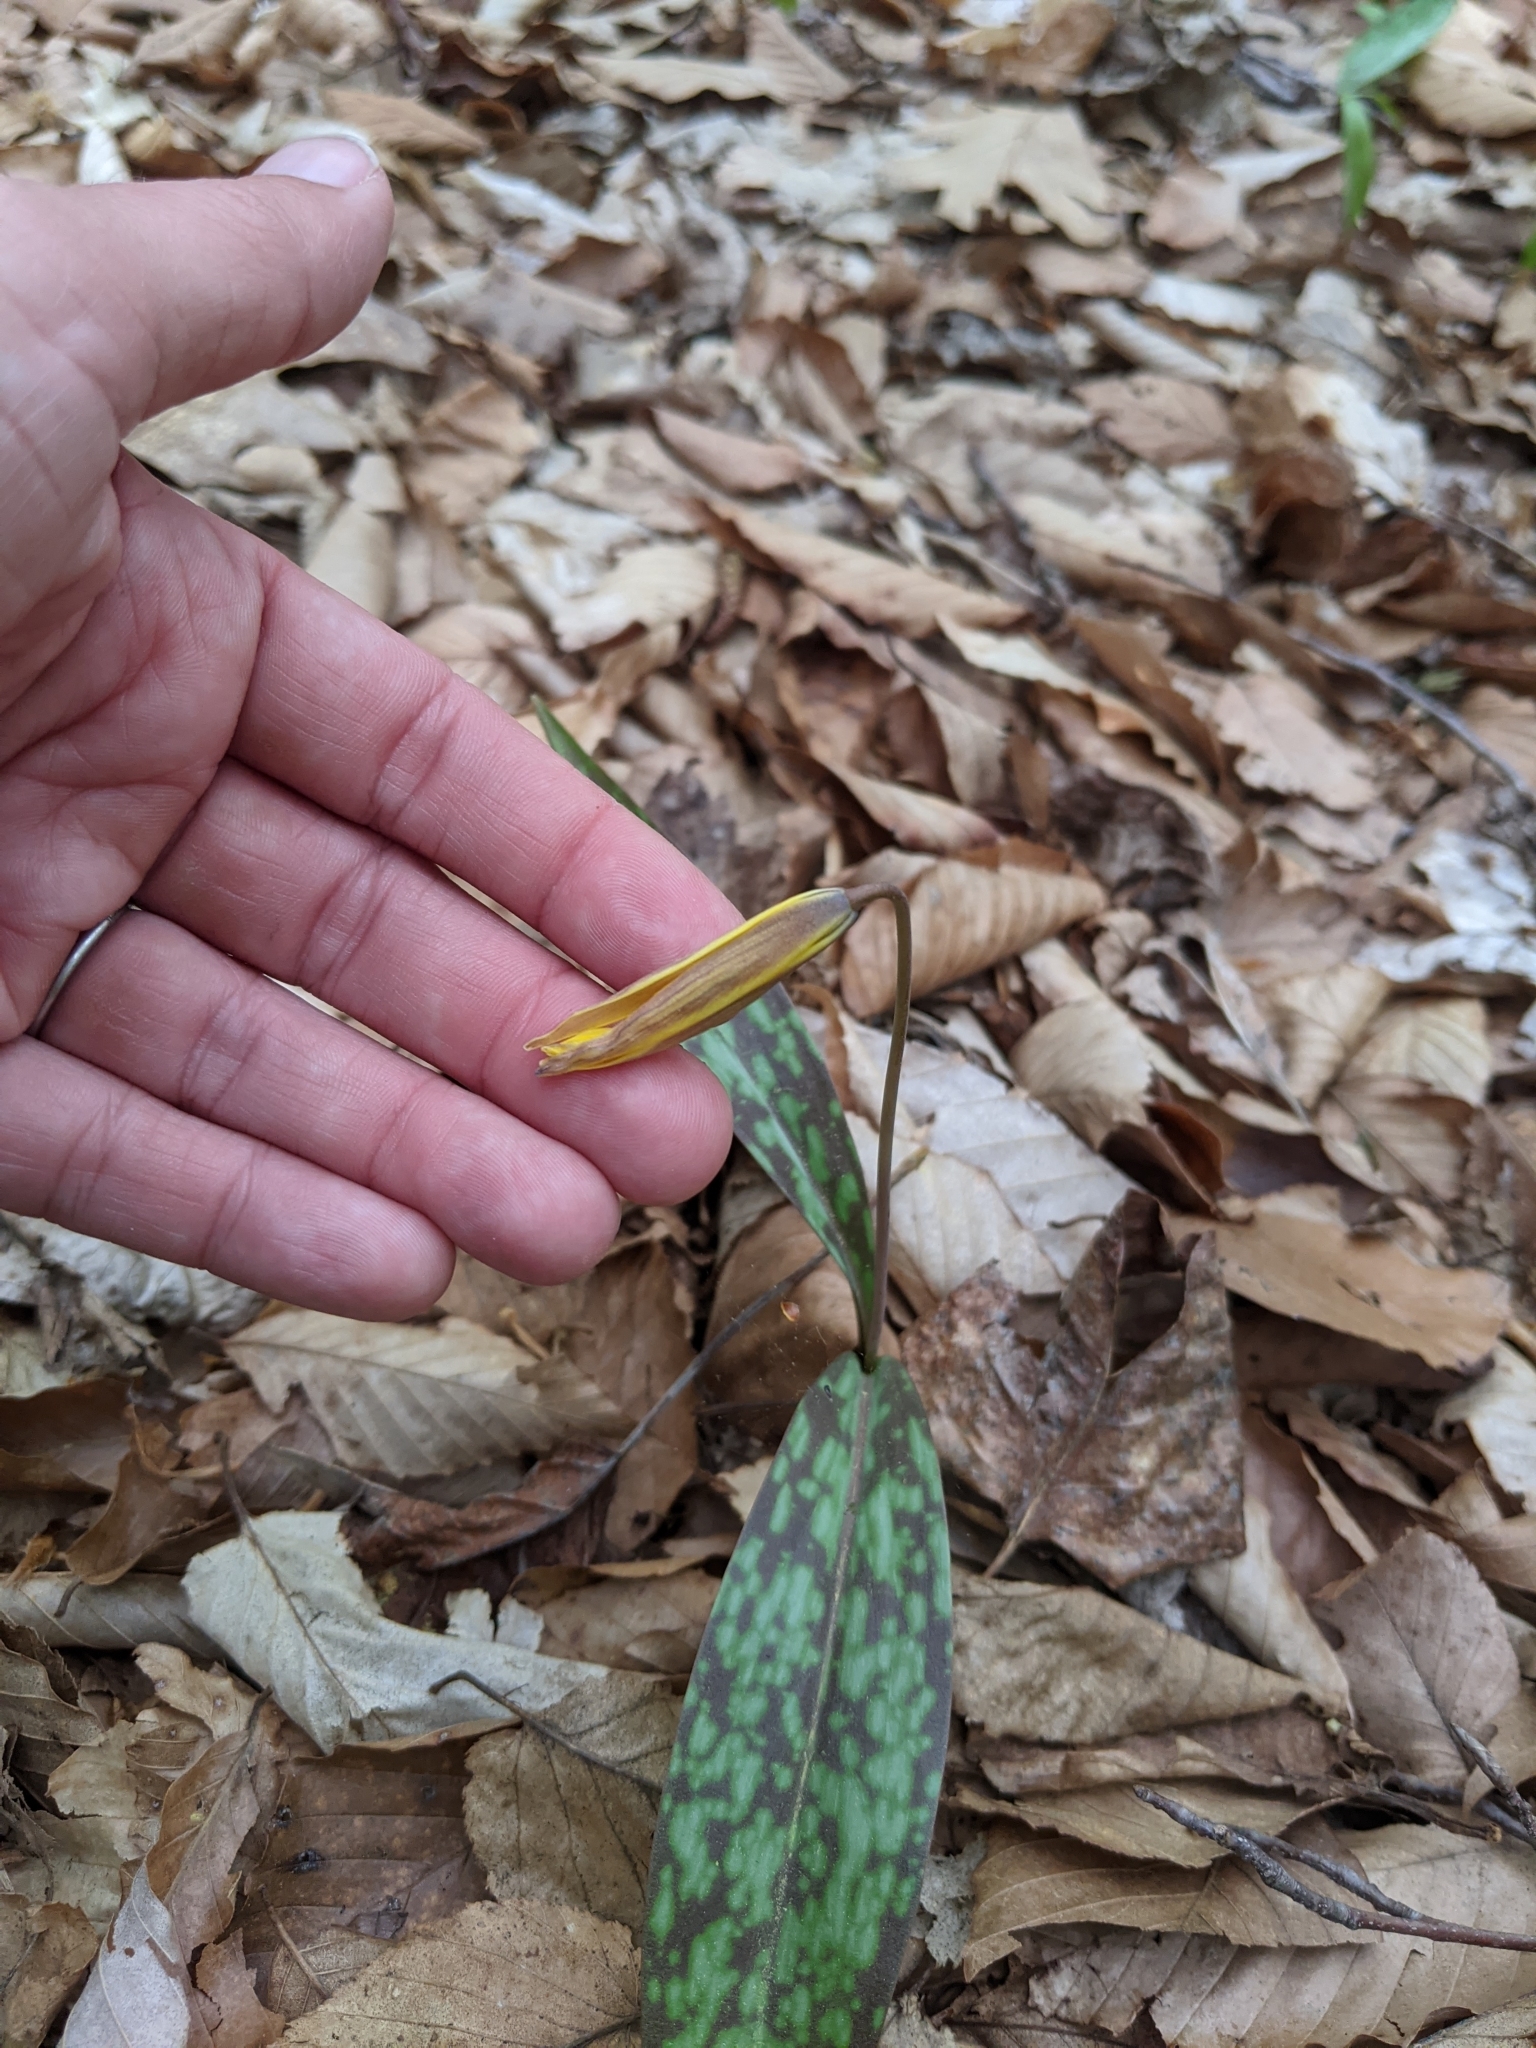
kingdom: Plantae
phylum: Tracheophyta
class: Liliopsida
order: Liliales
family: Liliaceae
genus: Erythronium
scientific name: Erythronium americanum
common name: Yellow adder's-tongue
